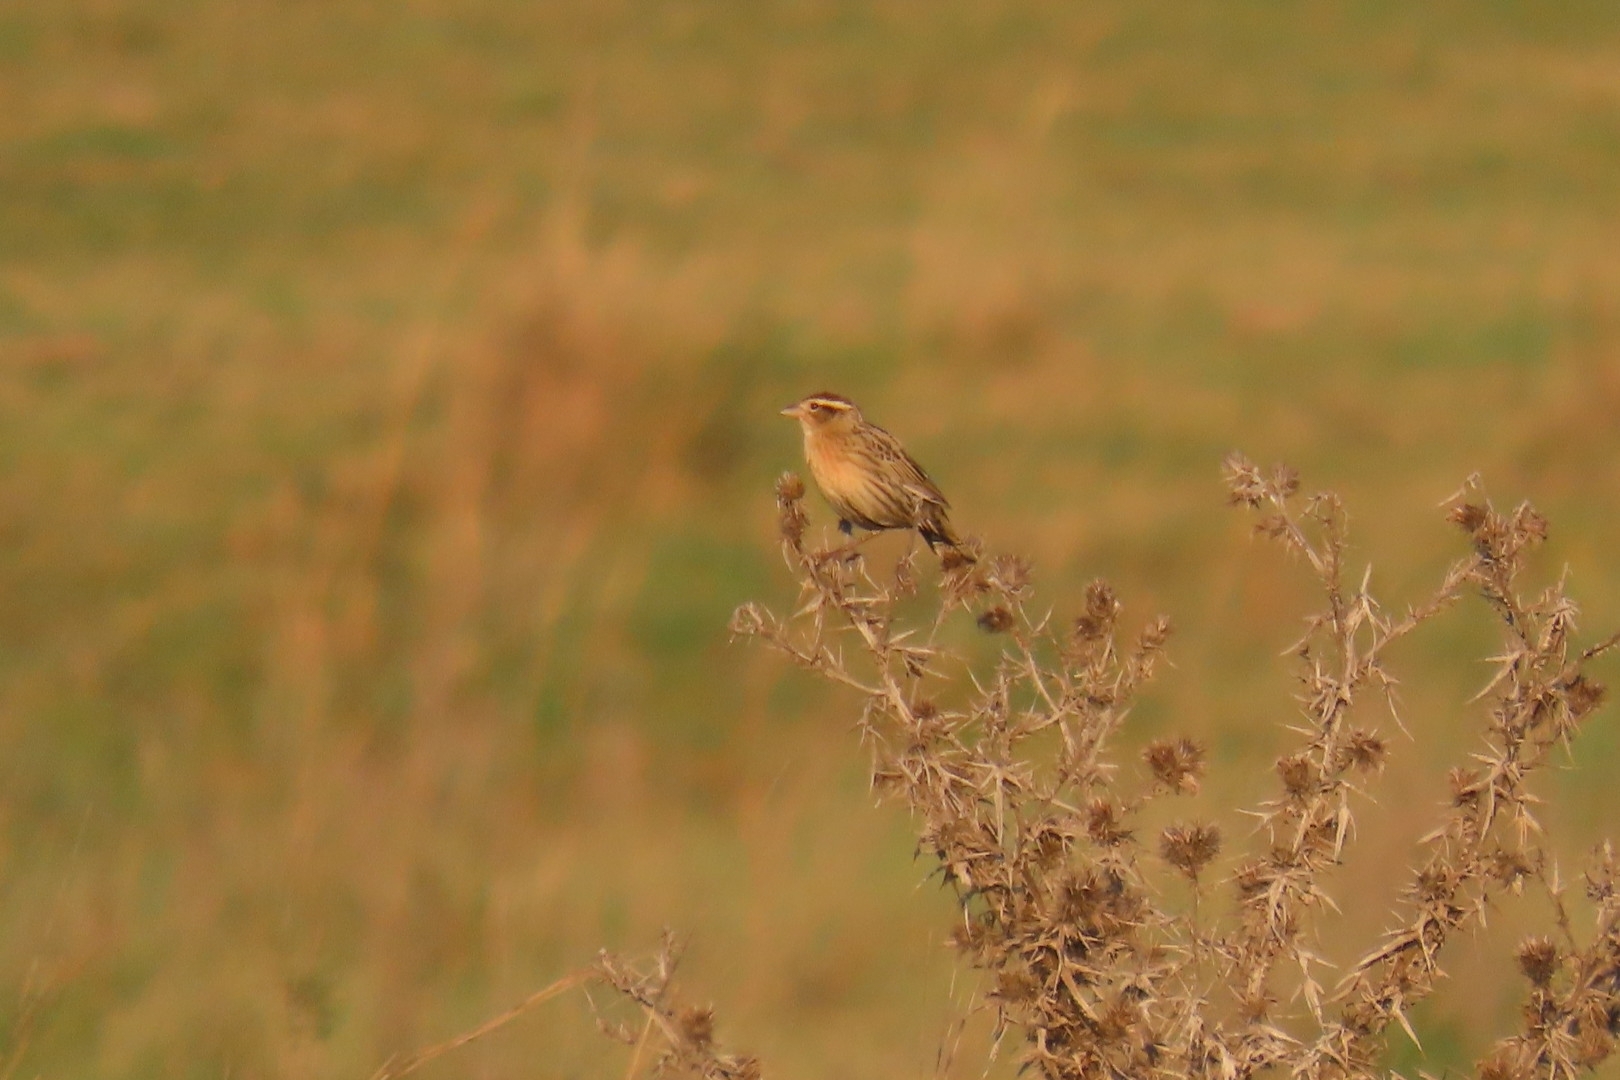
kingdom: Animalia
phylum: Chordata
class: Aves
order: Passeriformes
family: Icteridae
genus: Sturnella
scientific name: Sturnella superciliaris
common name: White-browed blackbird
